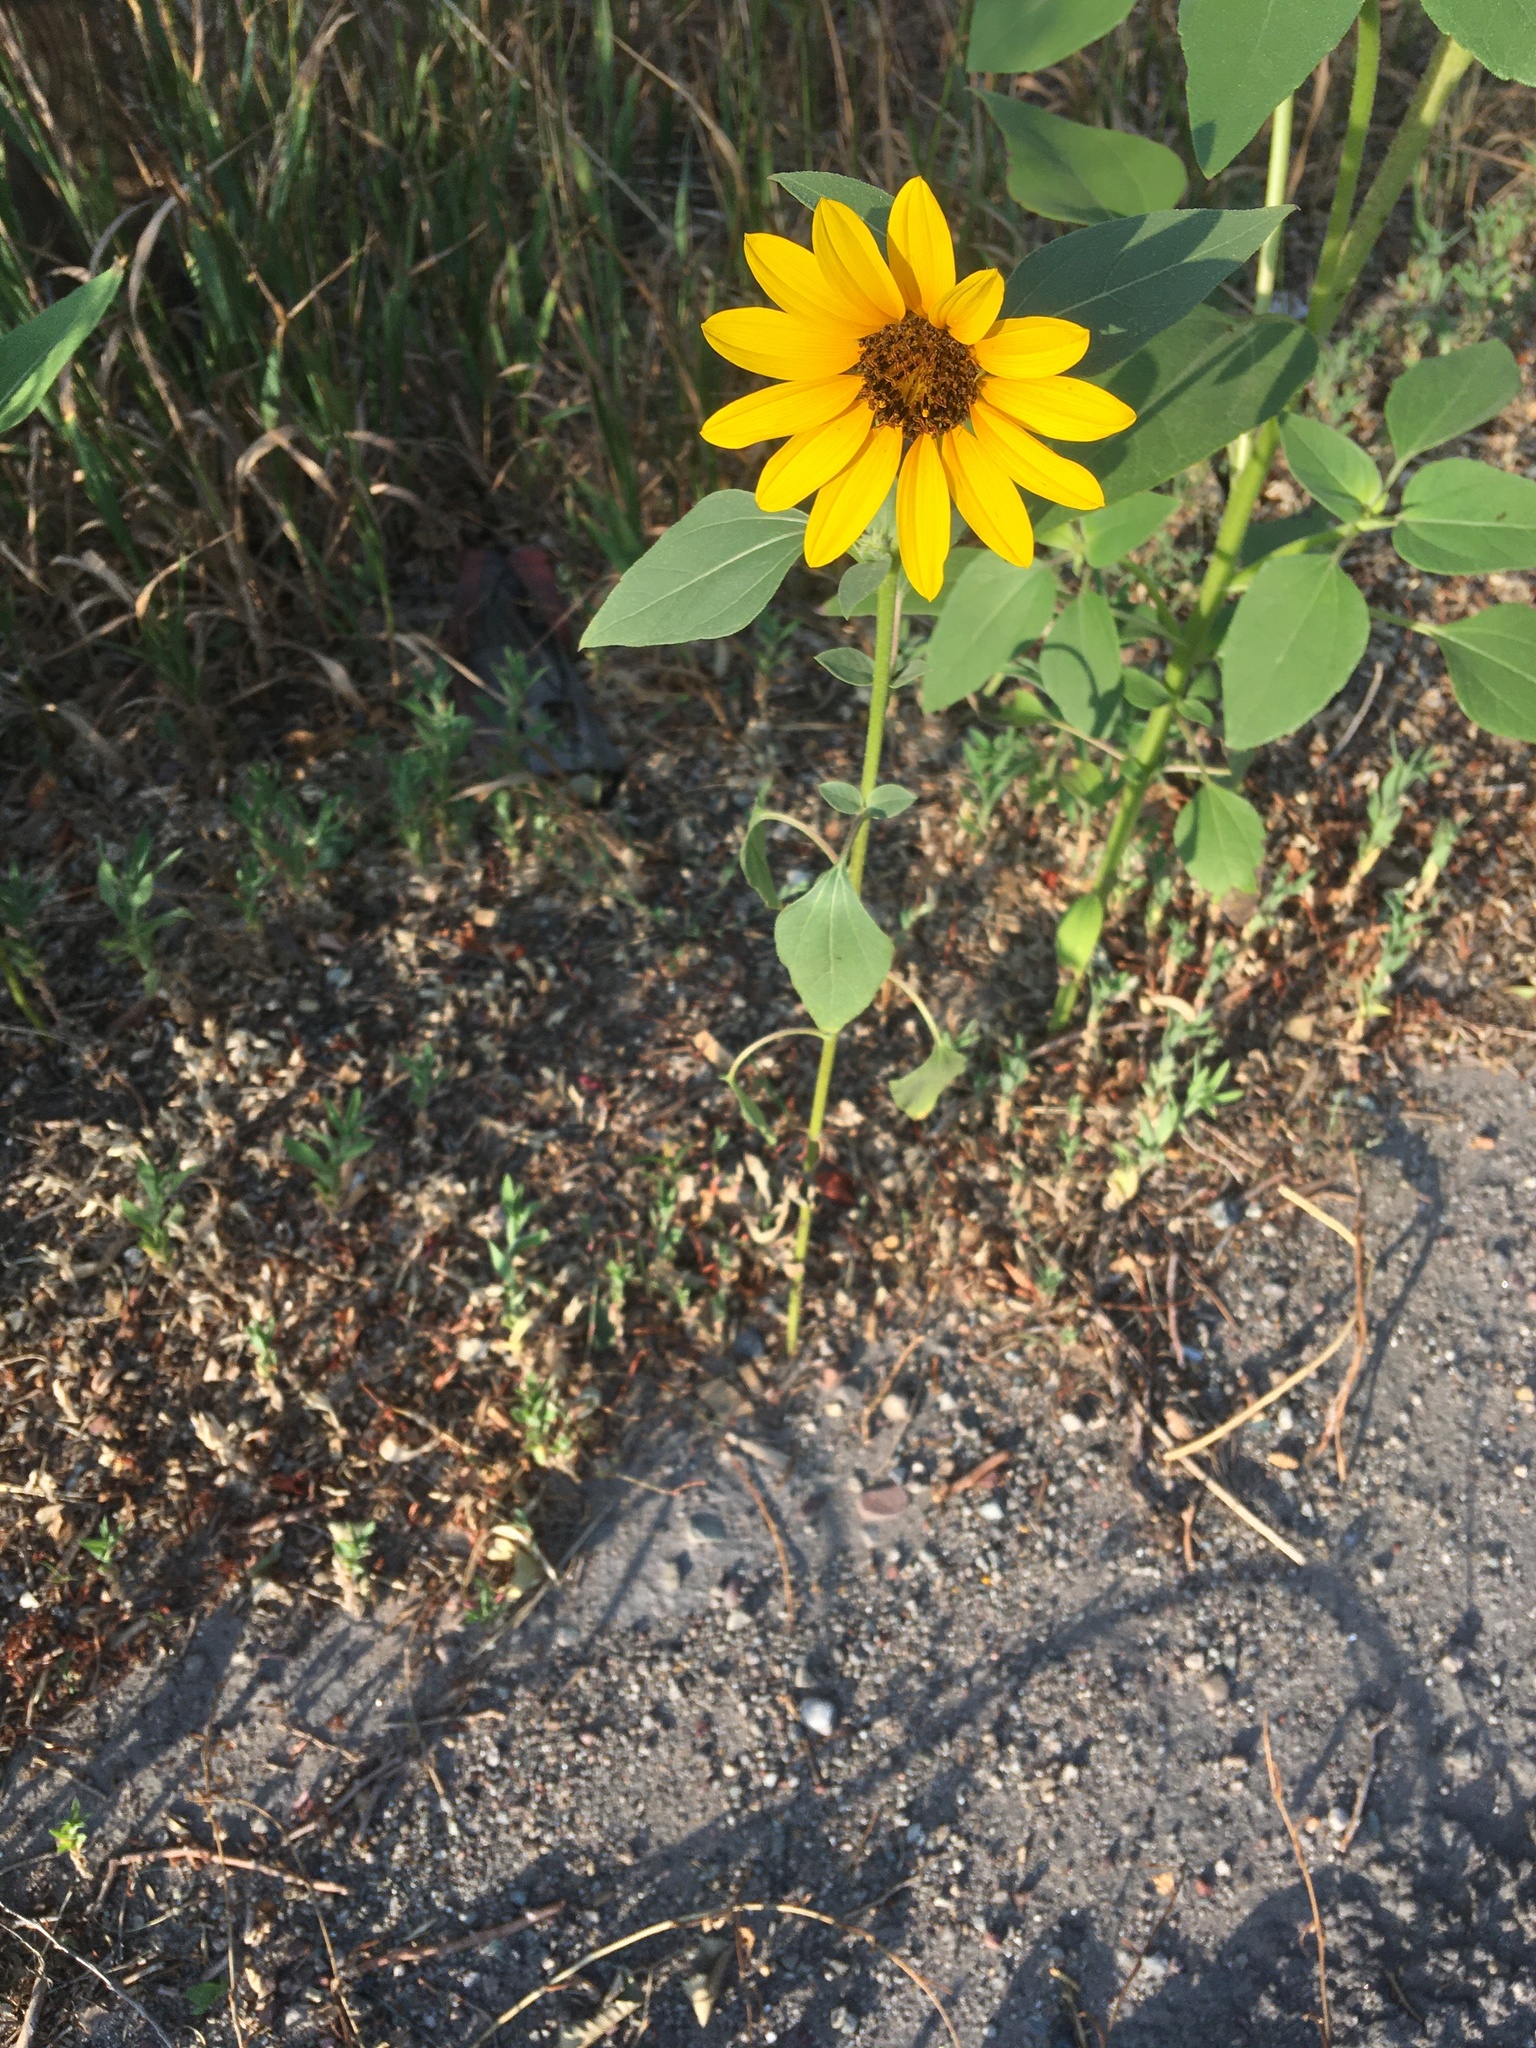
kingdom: Plantae
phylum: Tracheophyta
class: Magnoliopsida
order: Asterales
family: Asteraceae
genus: Helianthus
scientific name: Helianthus annuus
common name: Sunflower
